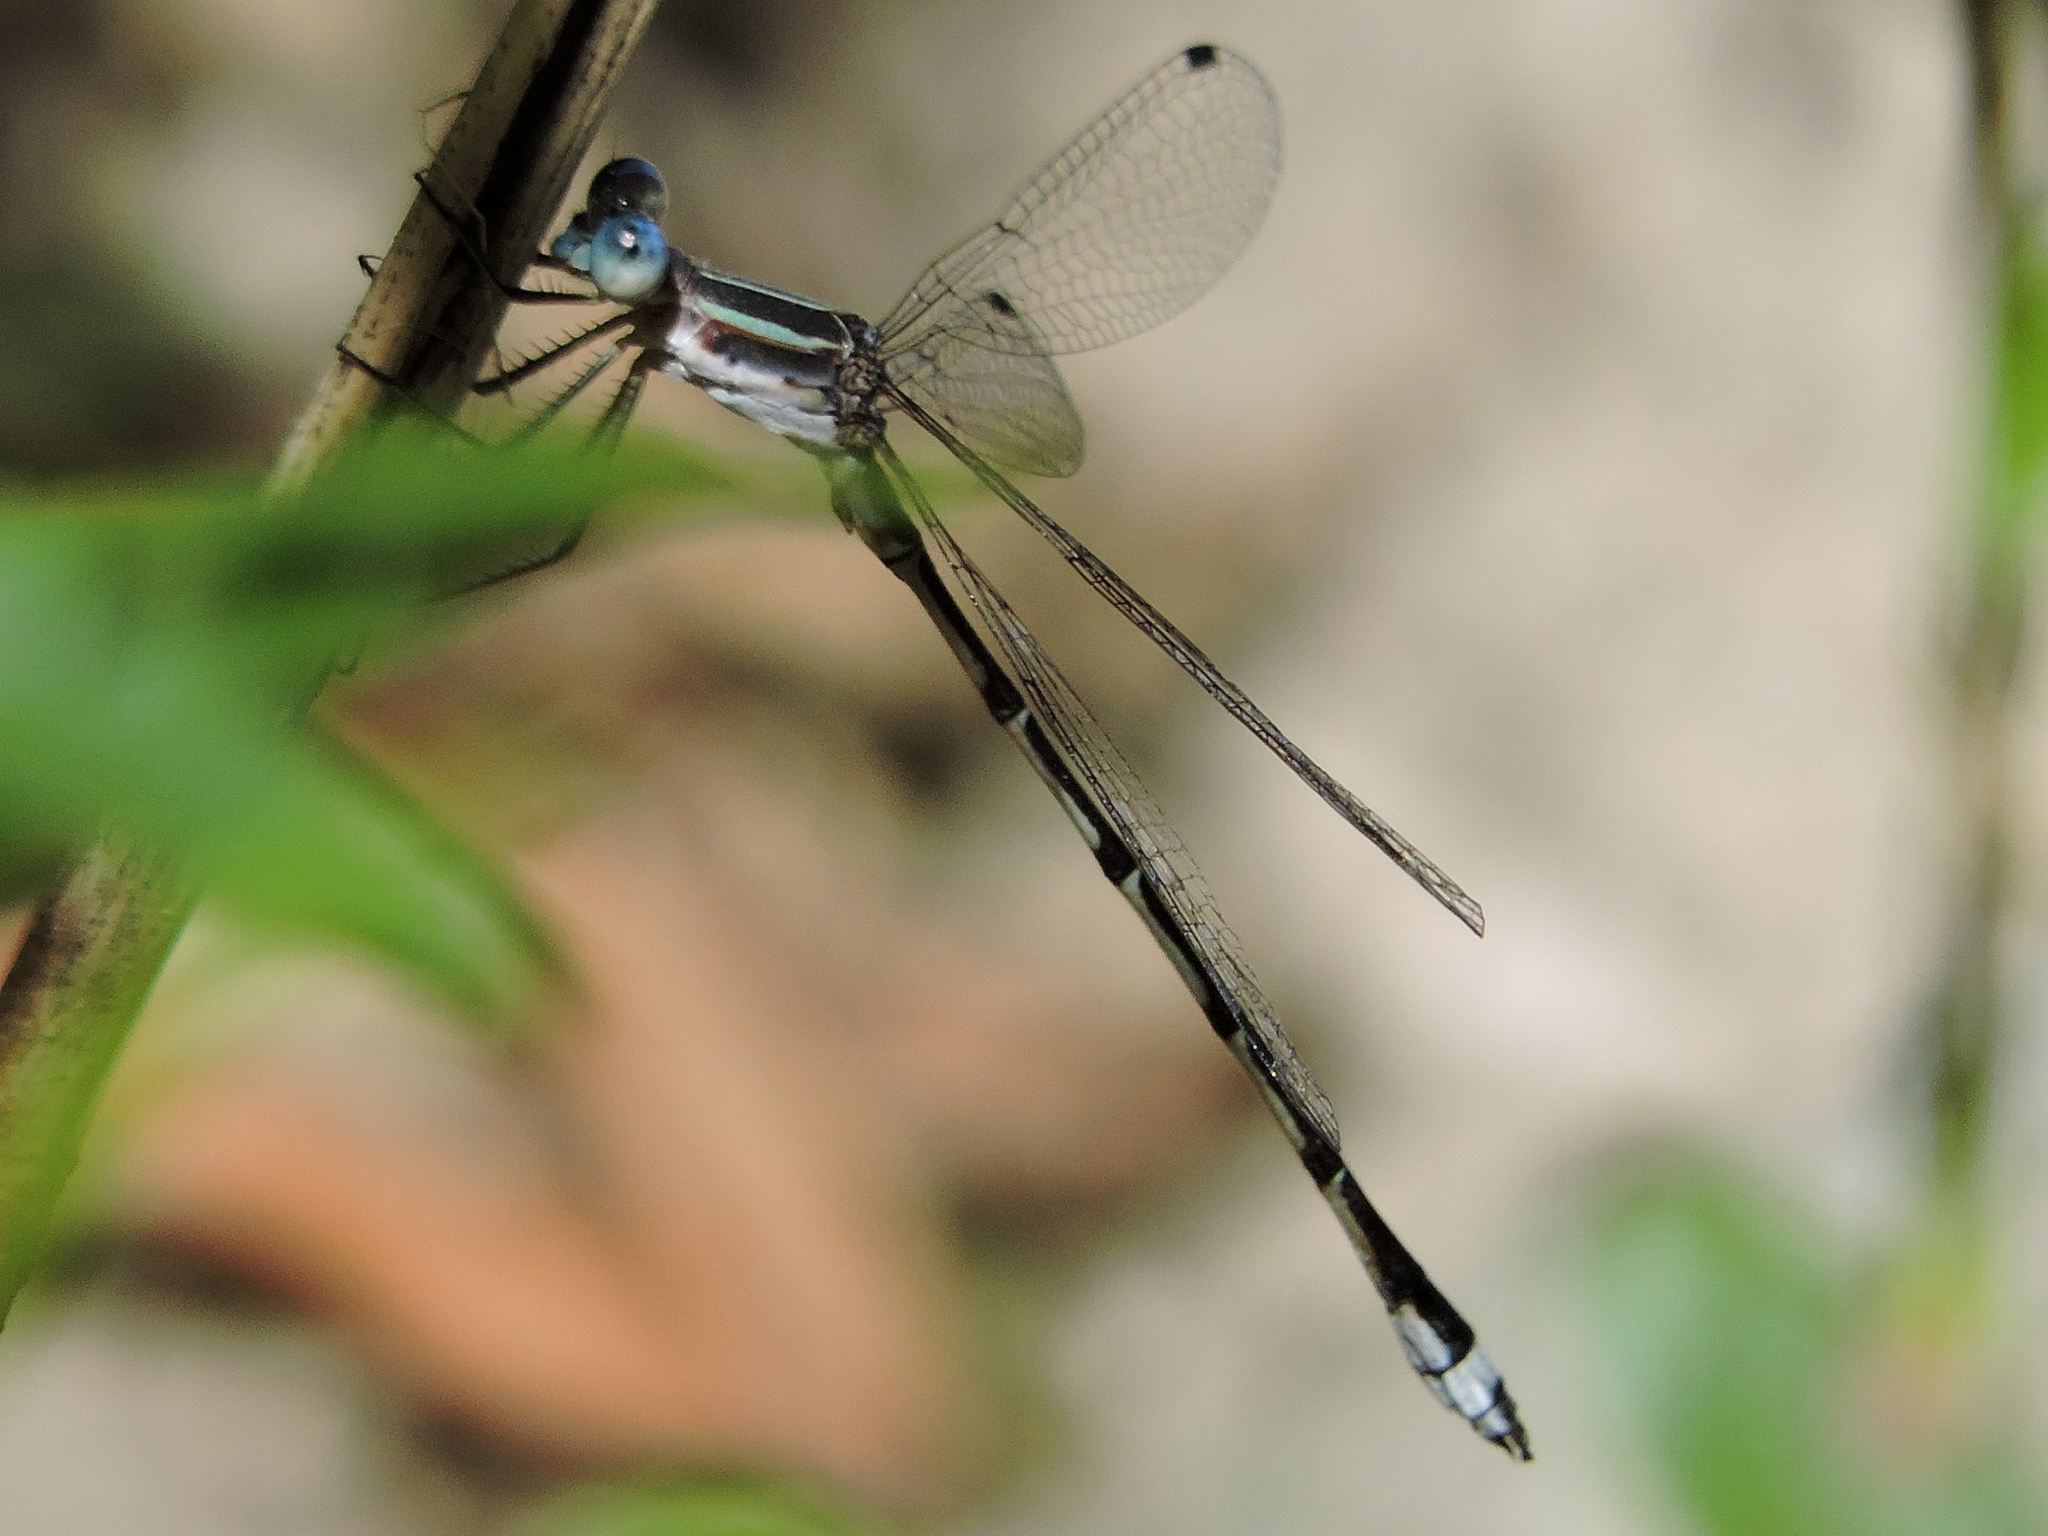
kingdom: Animalia
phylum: Arthropoda
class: Insecta
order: Odonata
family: Lestidae
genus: Lestes
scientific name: Lestes australis
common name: Southern spreadwing
